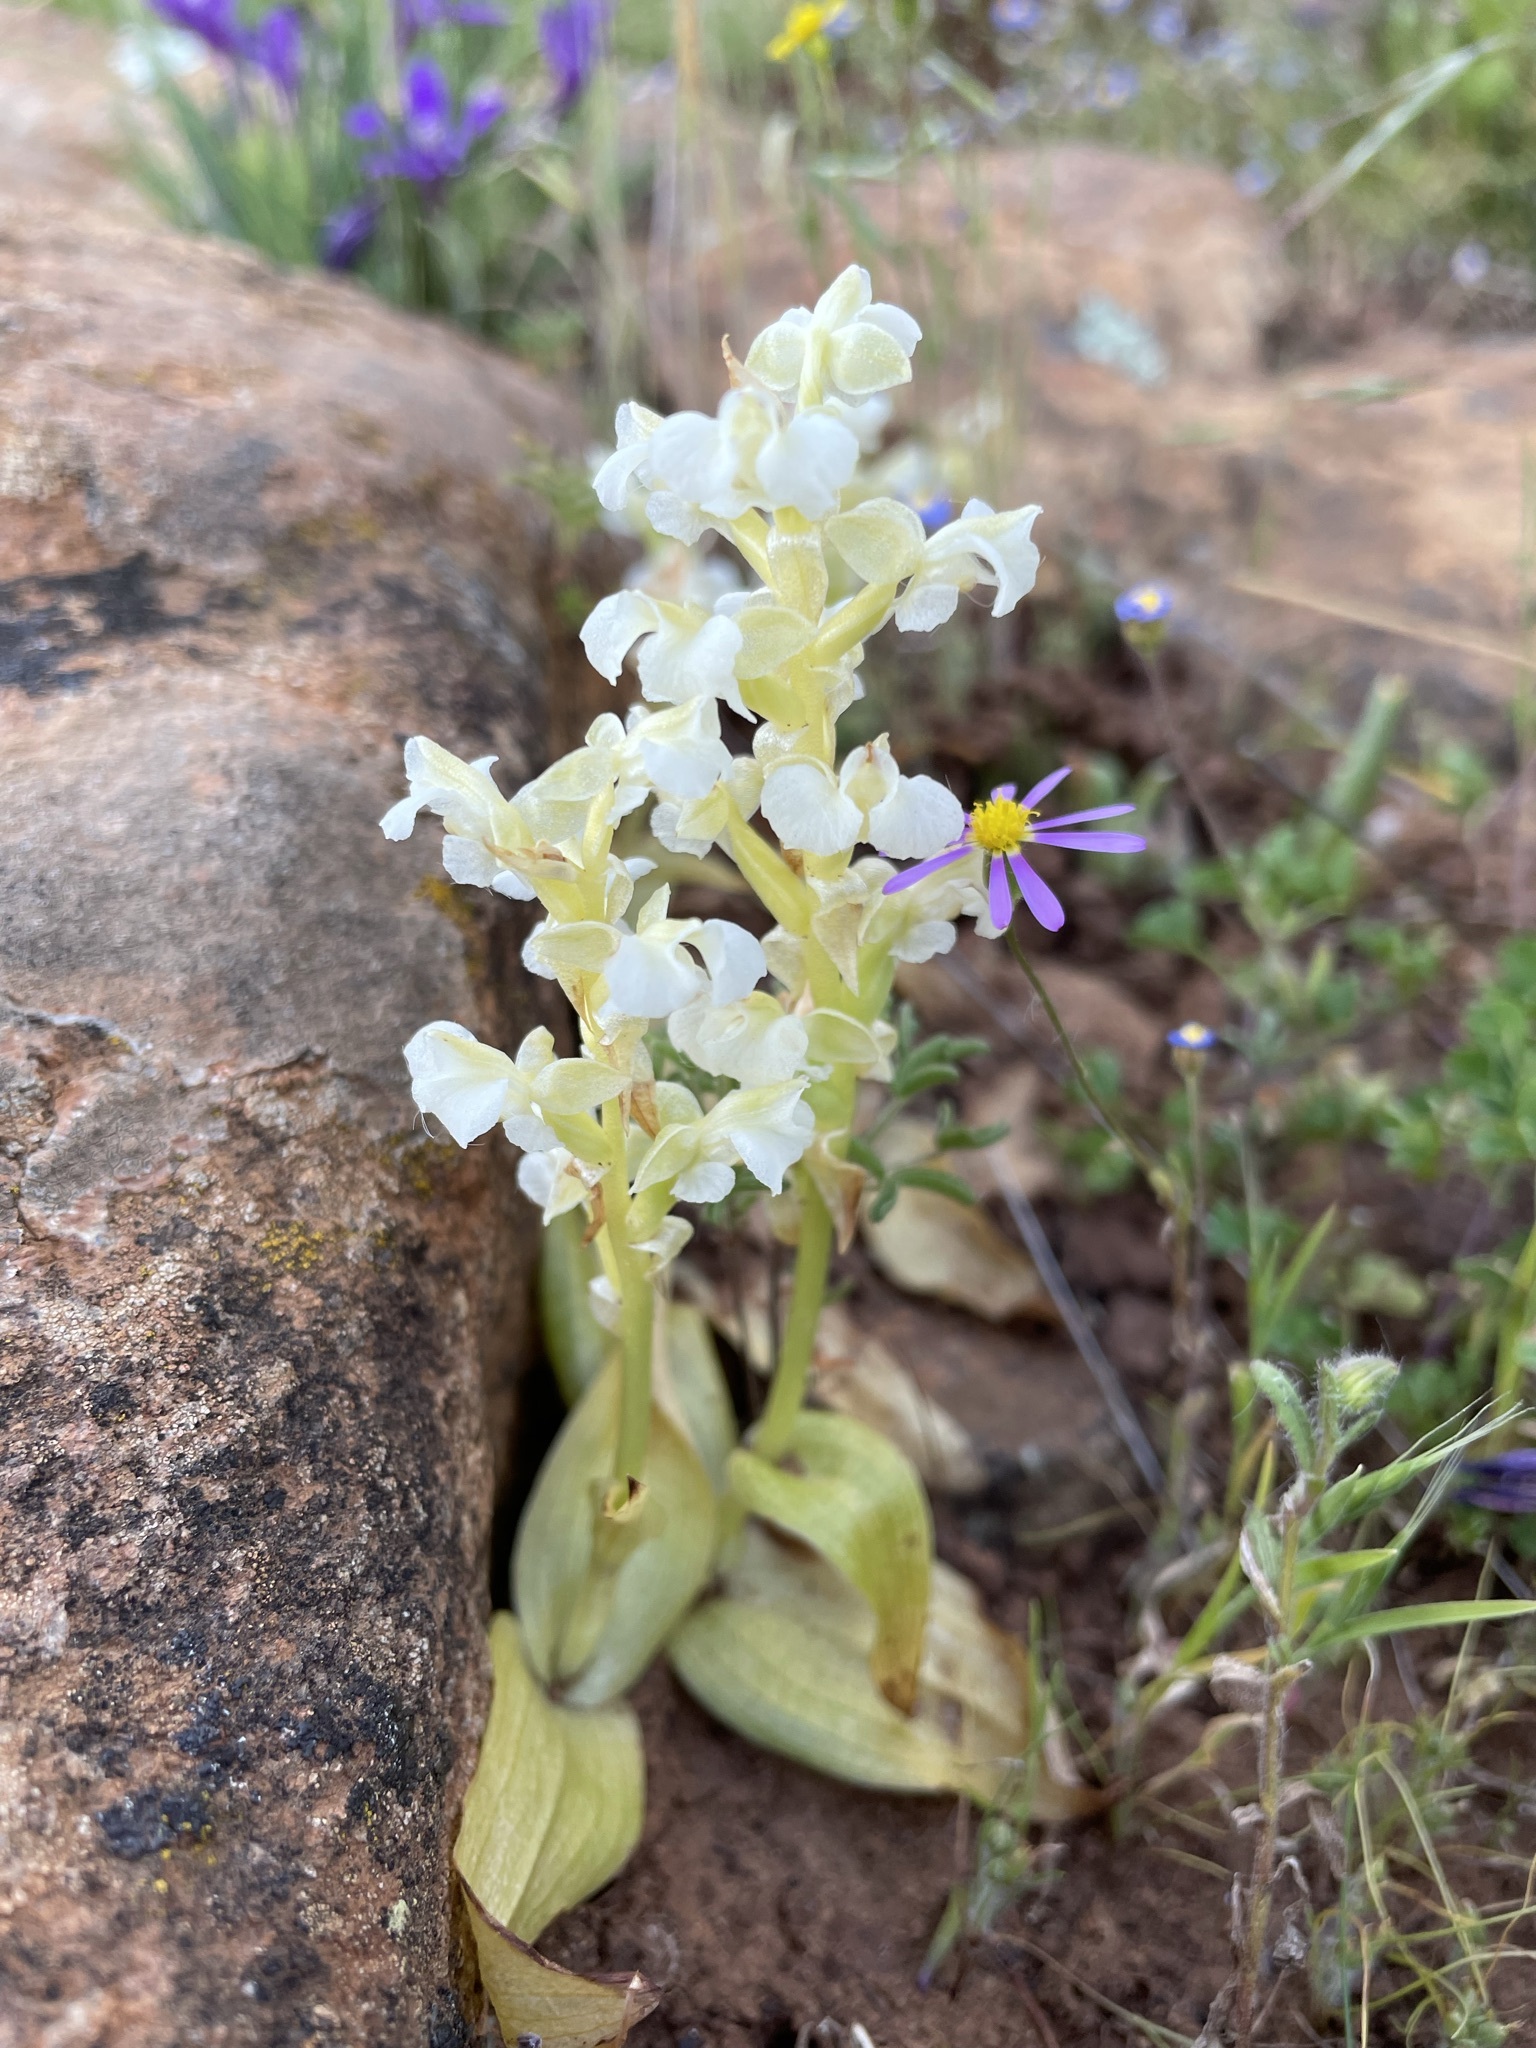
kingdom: Plantae
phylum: Tracheophyta
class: Liliopsida
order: Asparagales
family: Orchidaceae
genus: Pterygodium
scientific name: Pterygodium schelpei
